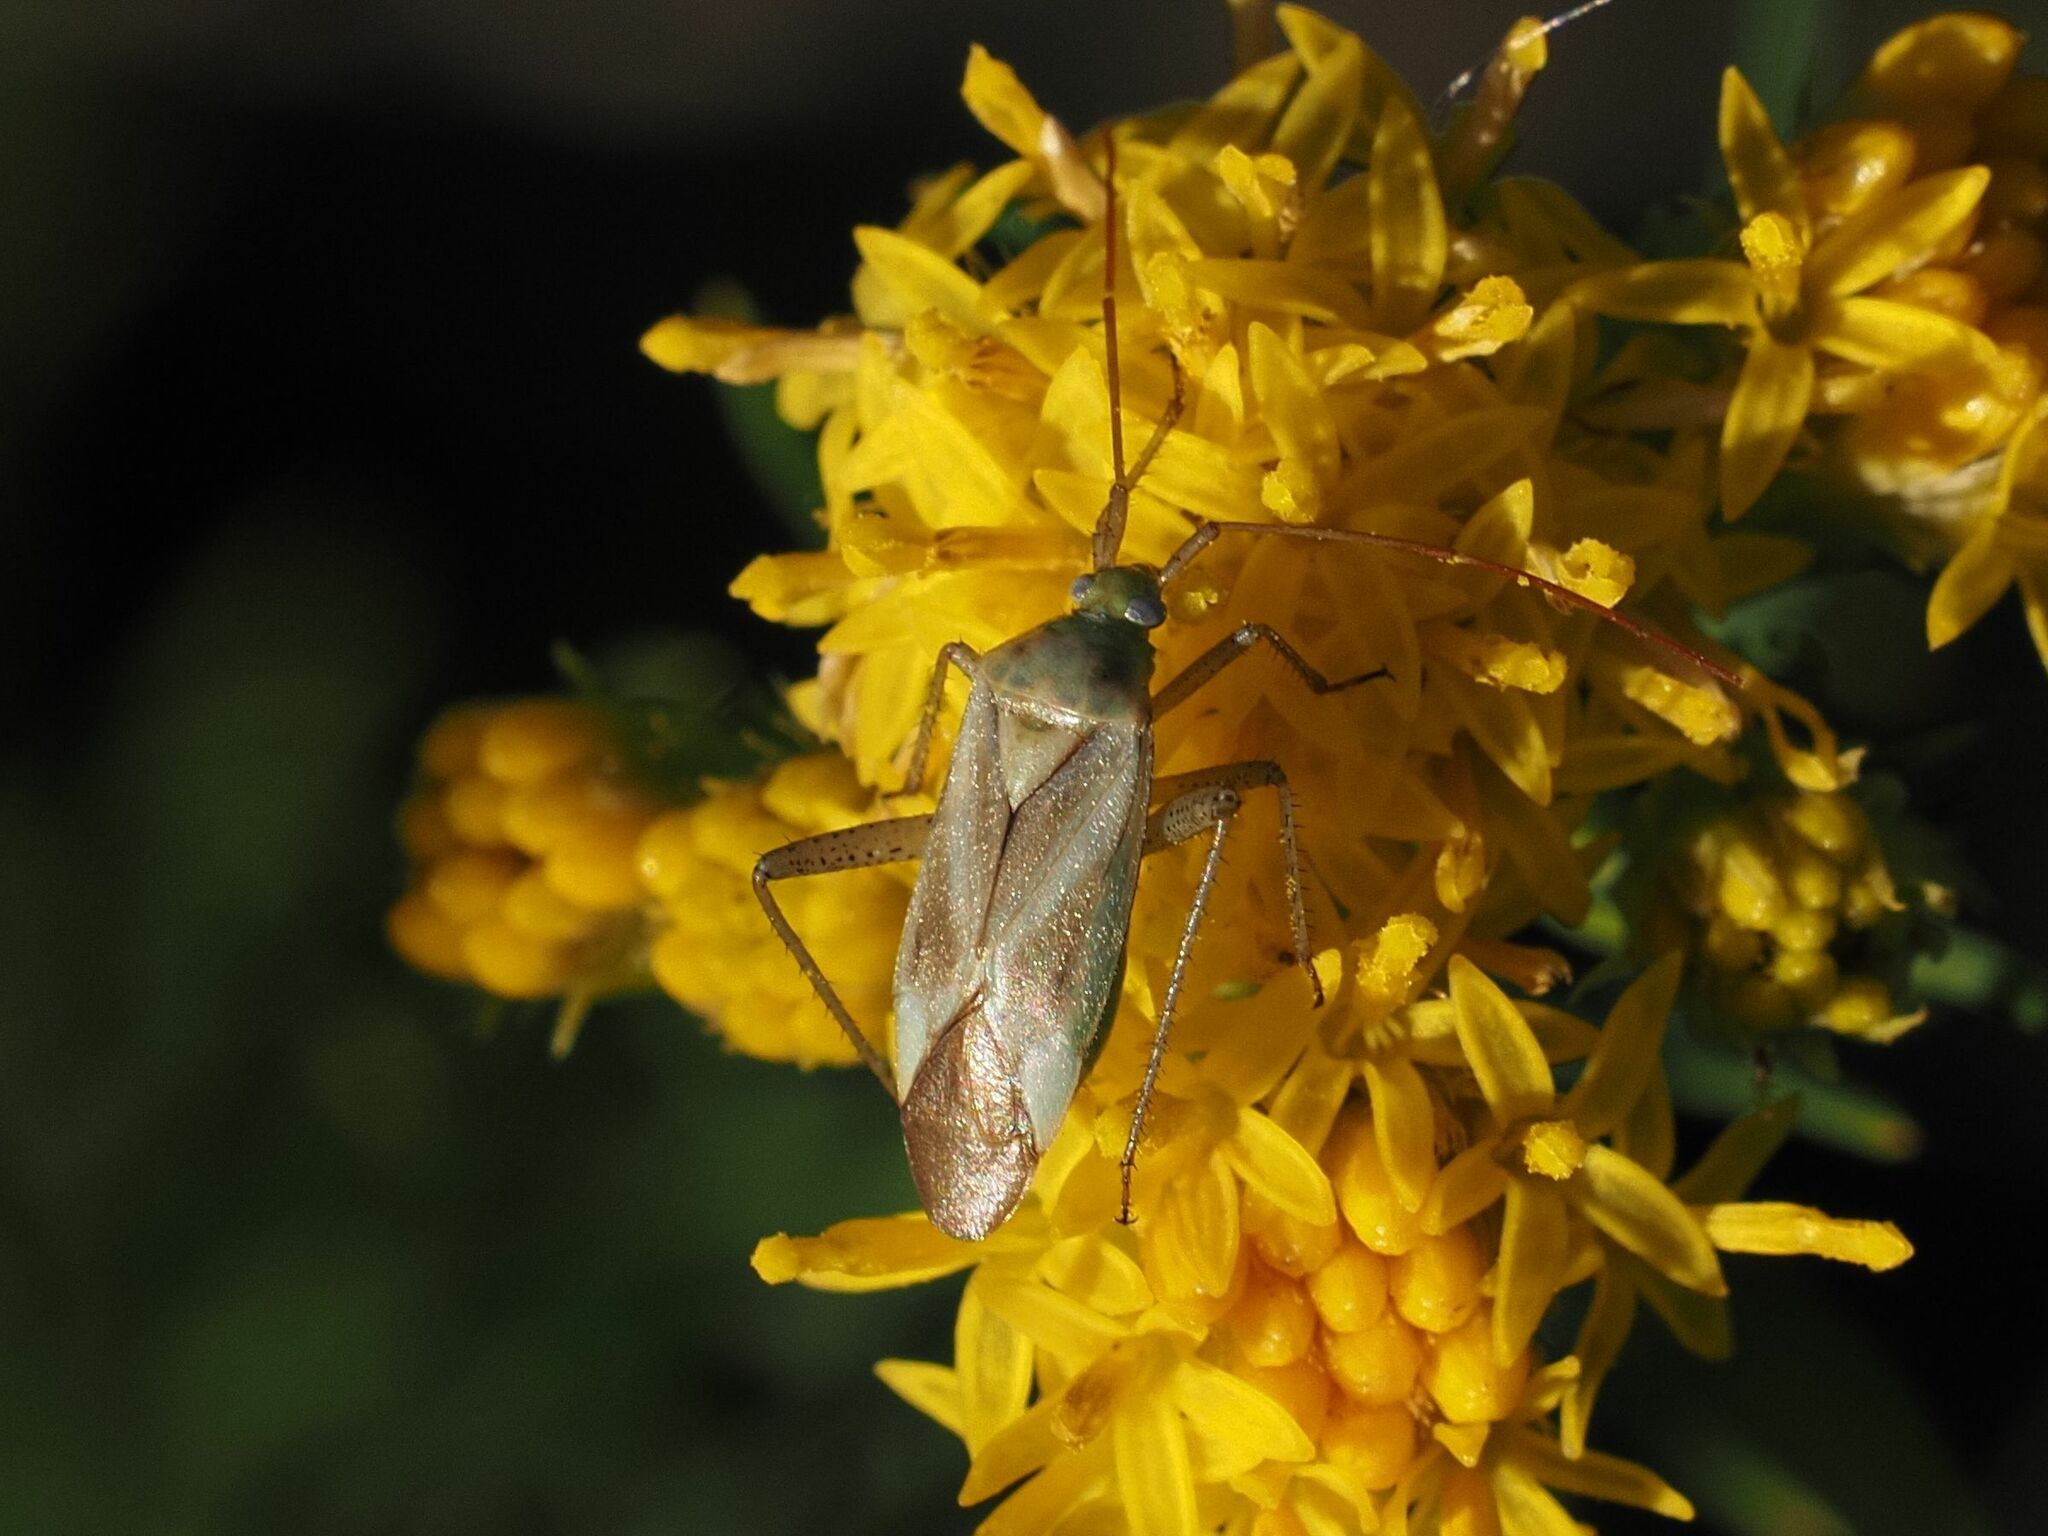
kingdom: Animalia
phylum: Arthropoda
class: Insecta
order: Hemiptera
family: Miridae
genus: Adelphocoris
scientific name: Adelphocoris lineolatus
